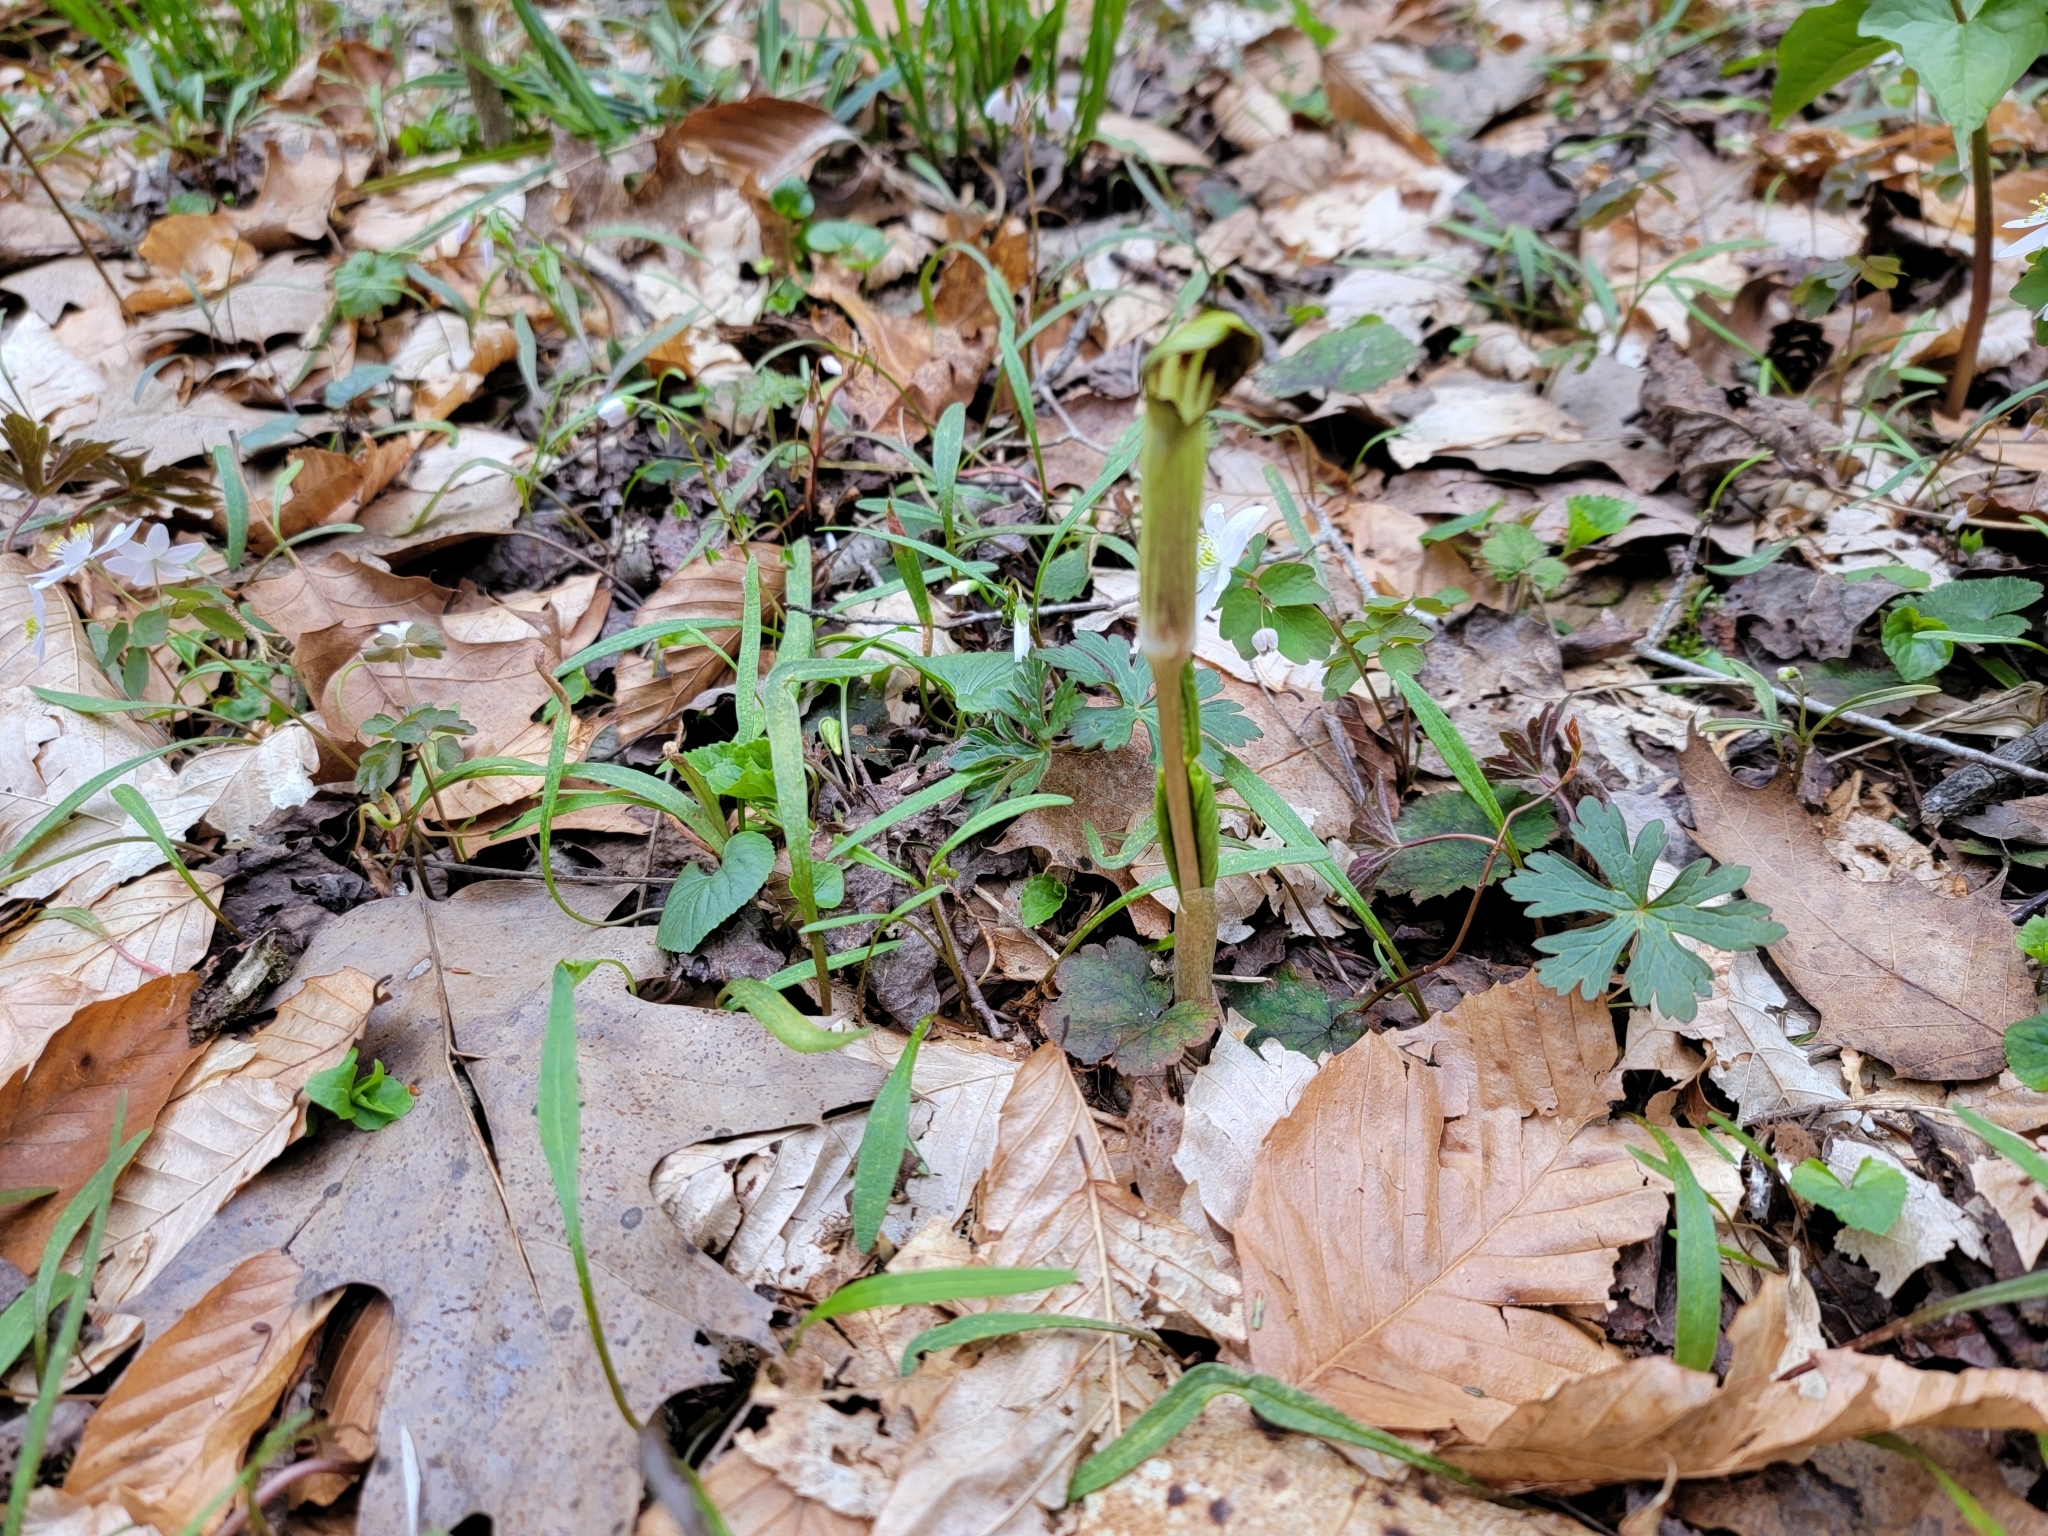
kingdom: Plantae
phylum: Tracheophyta
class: Liliopsida
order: Alismatales
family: Araceae
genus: Arisaema
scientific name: Arisaema triphyllum
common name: Jack-in-the-pulpit
